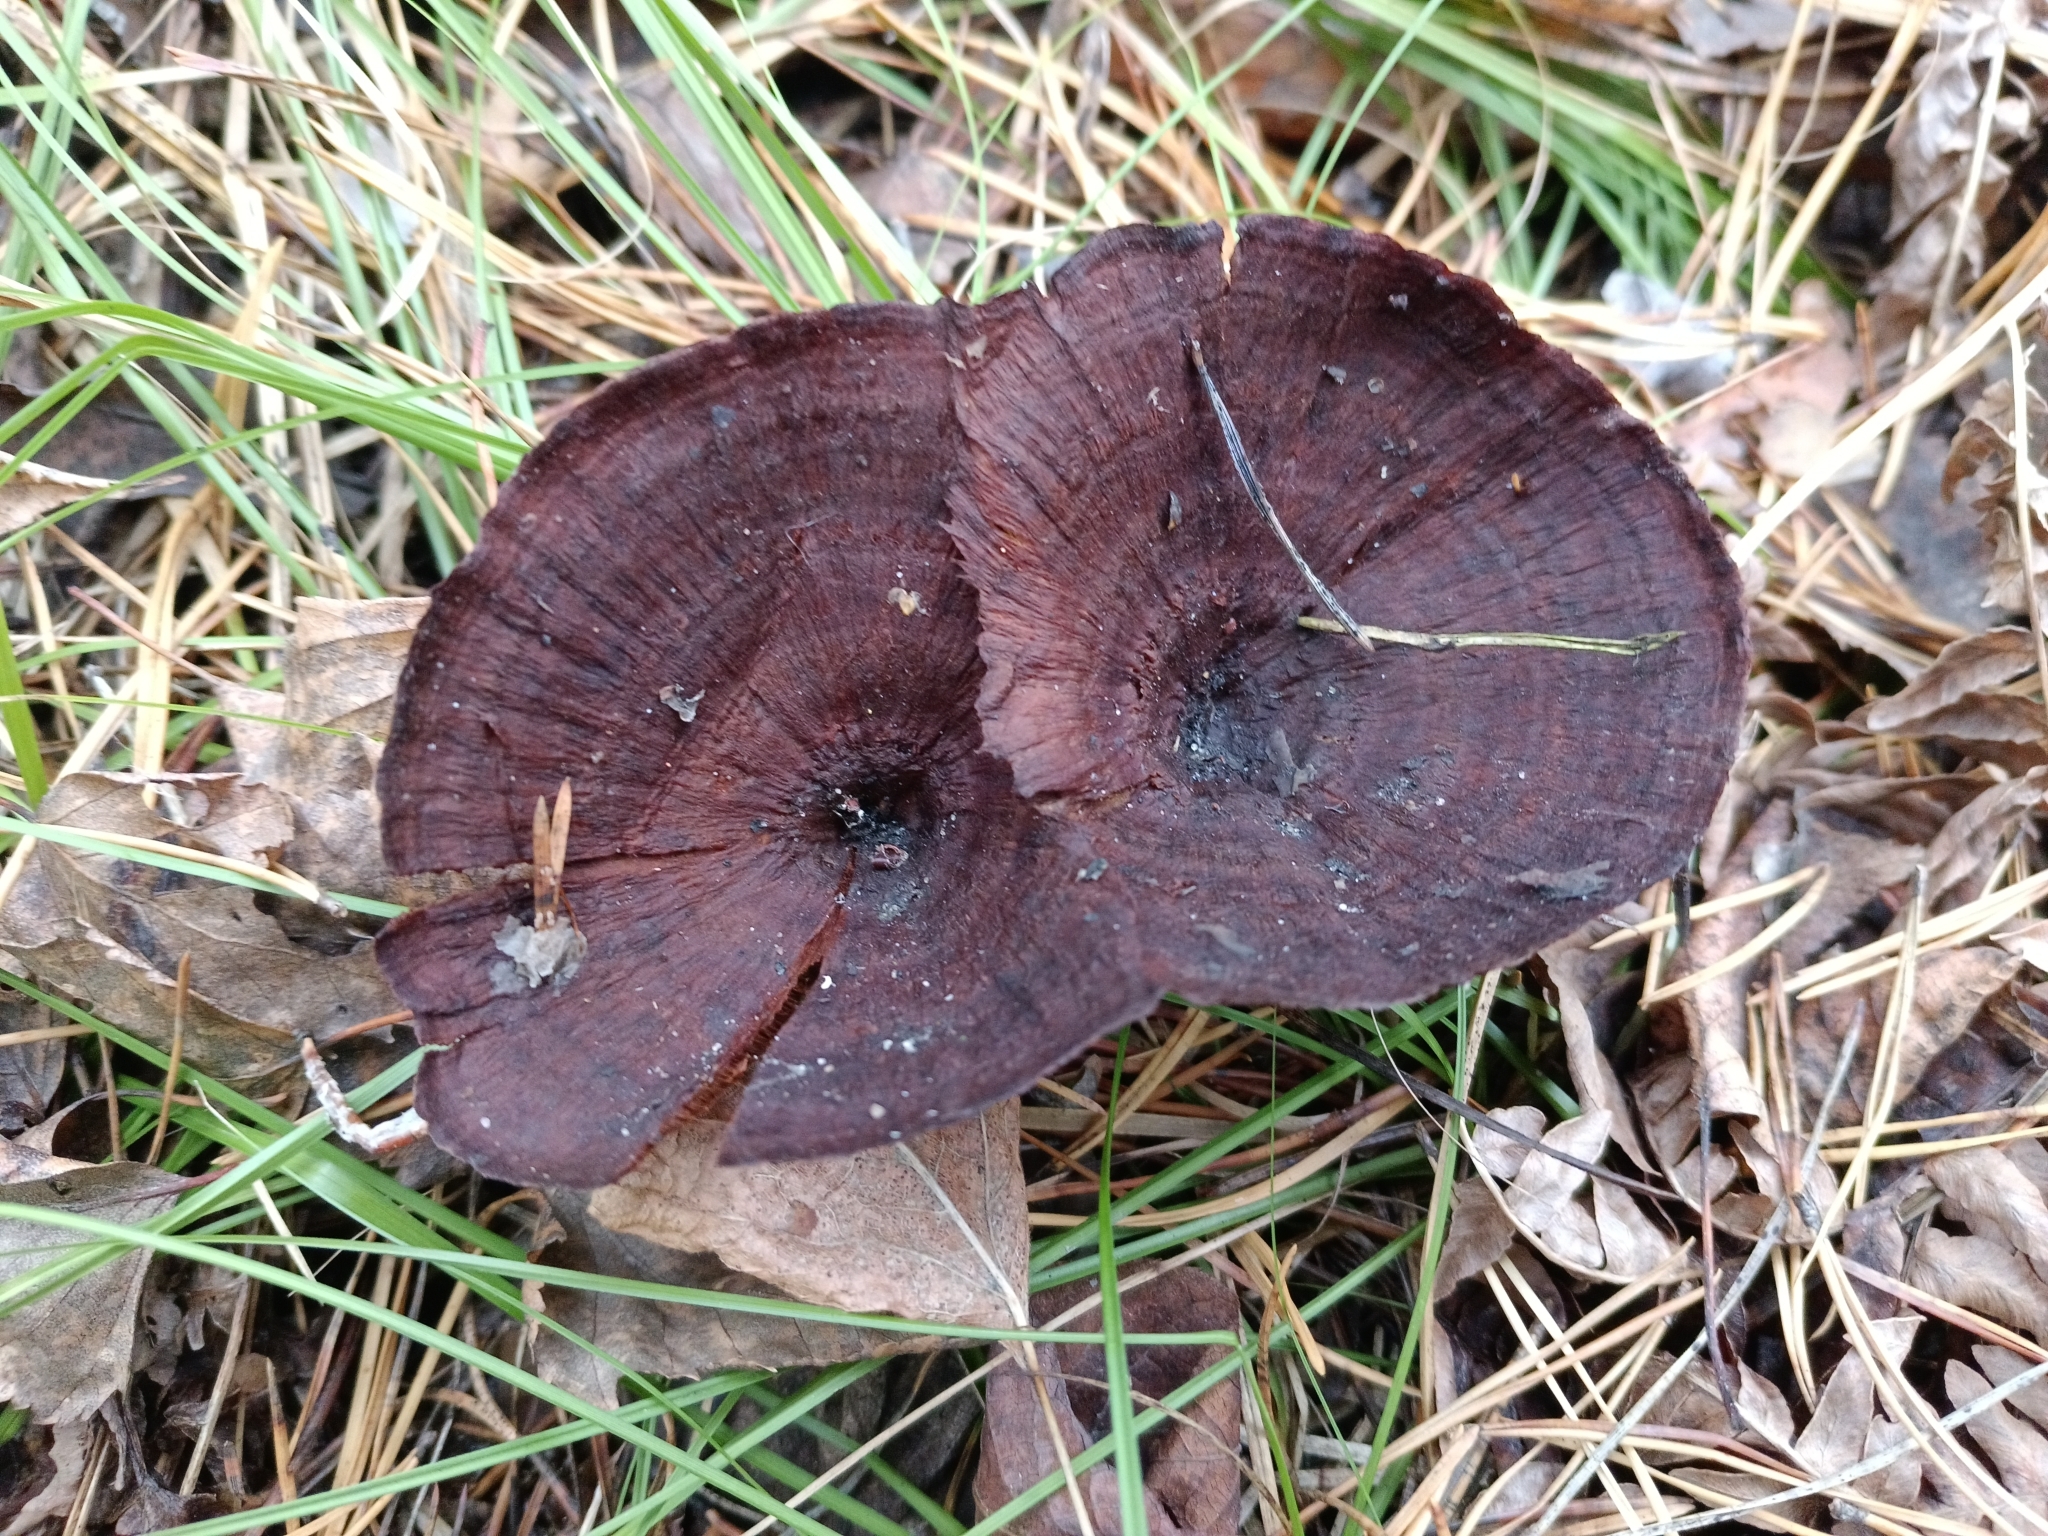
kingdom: Fungi
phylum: Basidiomycota
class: Agaricomycetes
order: Hymenochaetales
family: Hymenochaetaceae
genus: Coltricia
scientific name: Coltricia perennis
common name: Tiger's eye
